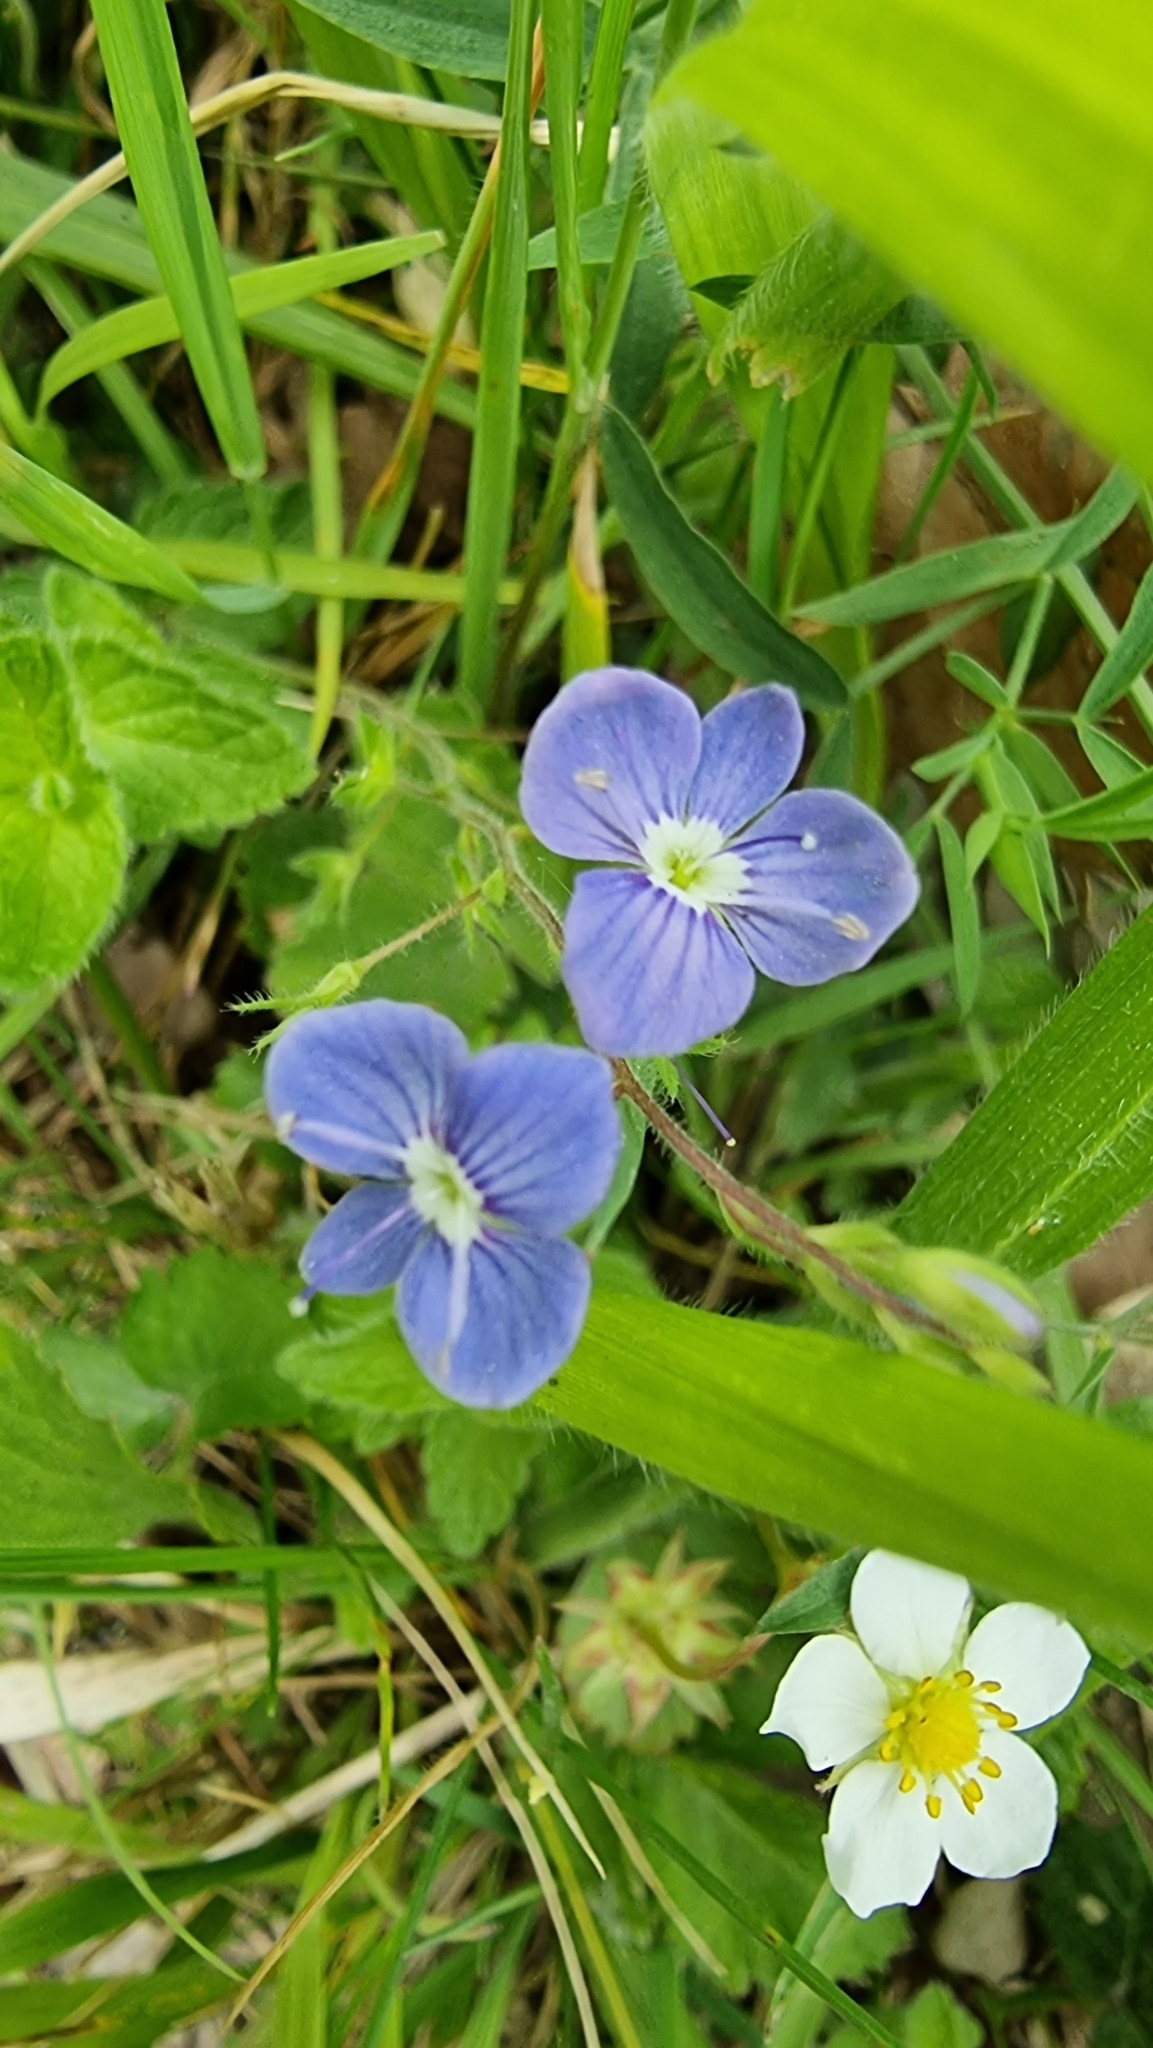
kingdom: Plantae
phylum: Tracheophyta
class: Magnoliopsida
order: Lamiales
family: Plantaginaceae
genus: Veronica
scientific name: Veronica chamaedrys
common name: Germander speedwell
